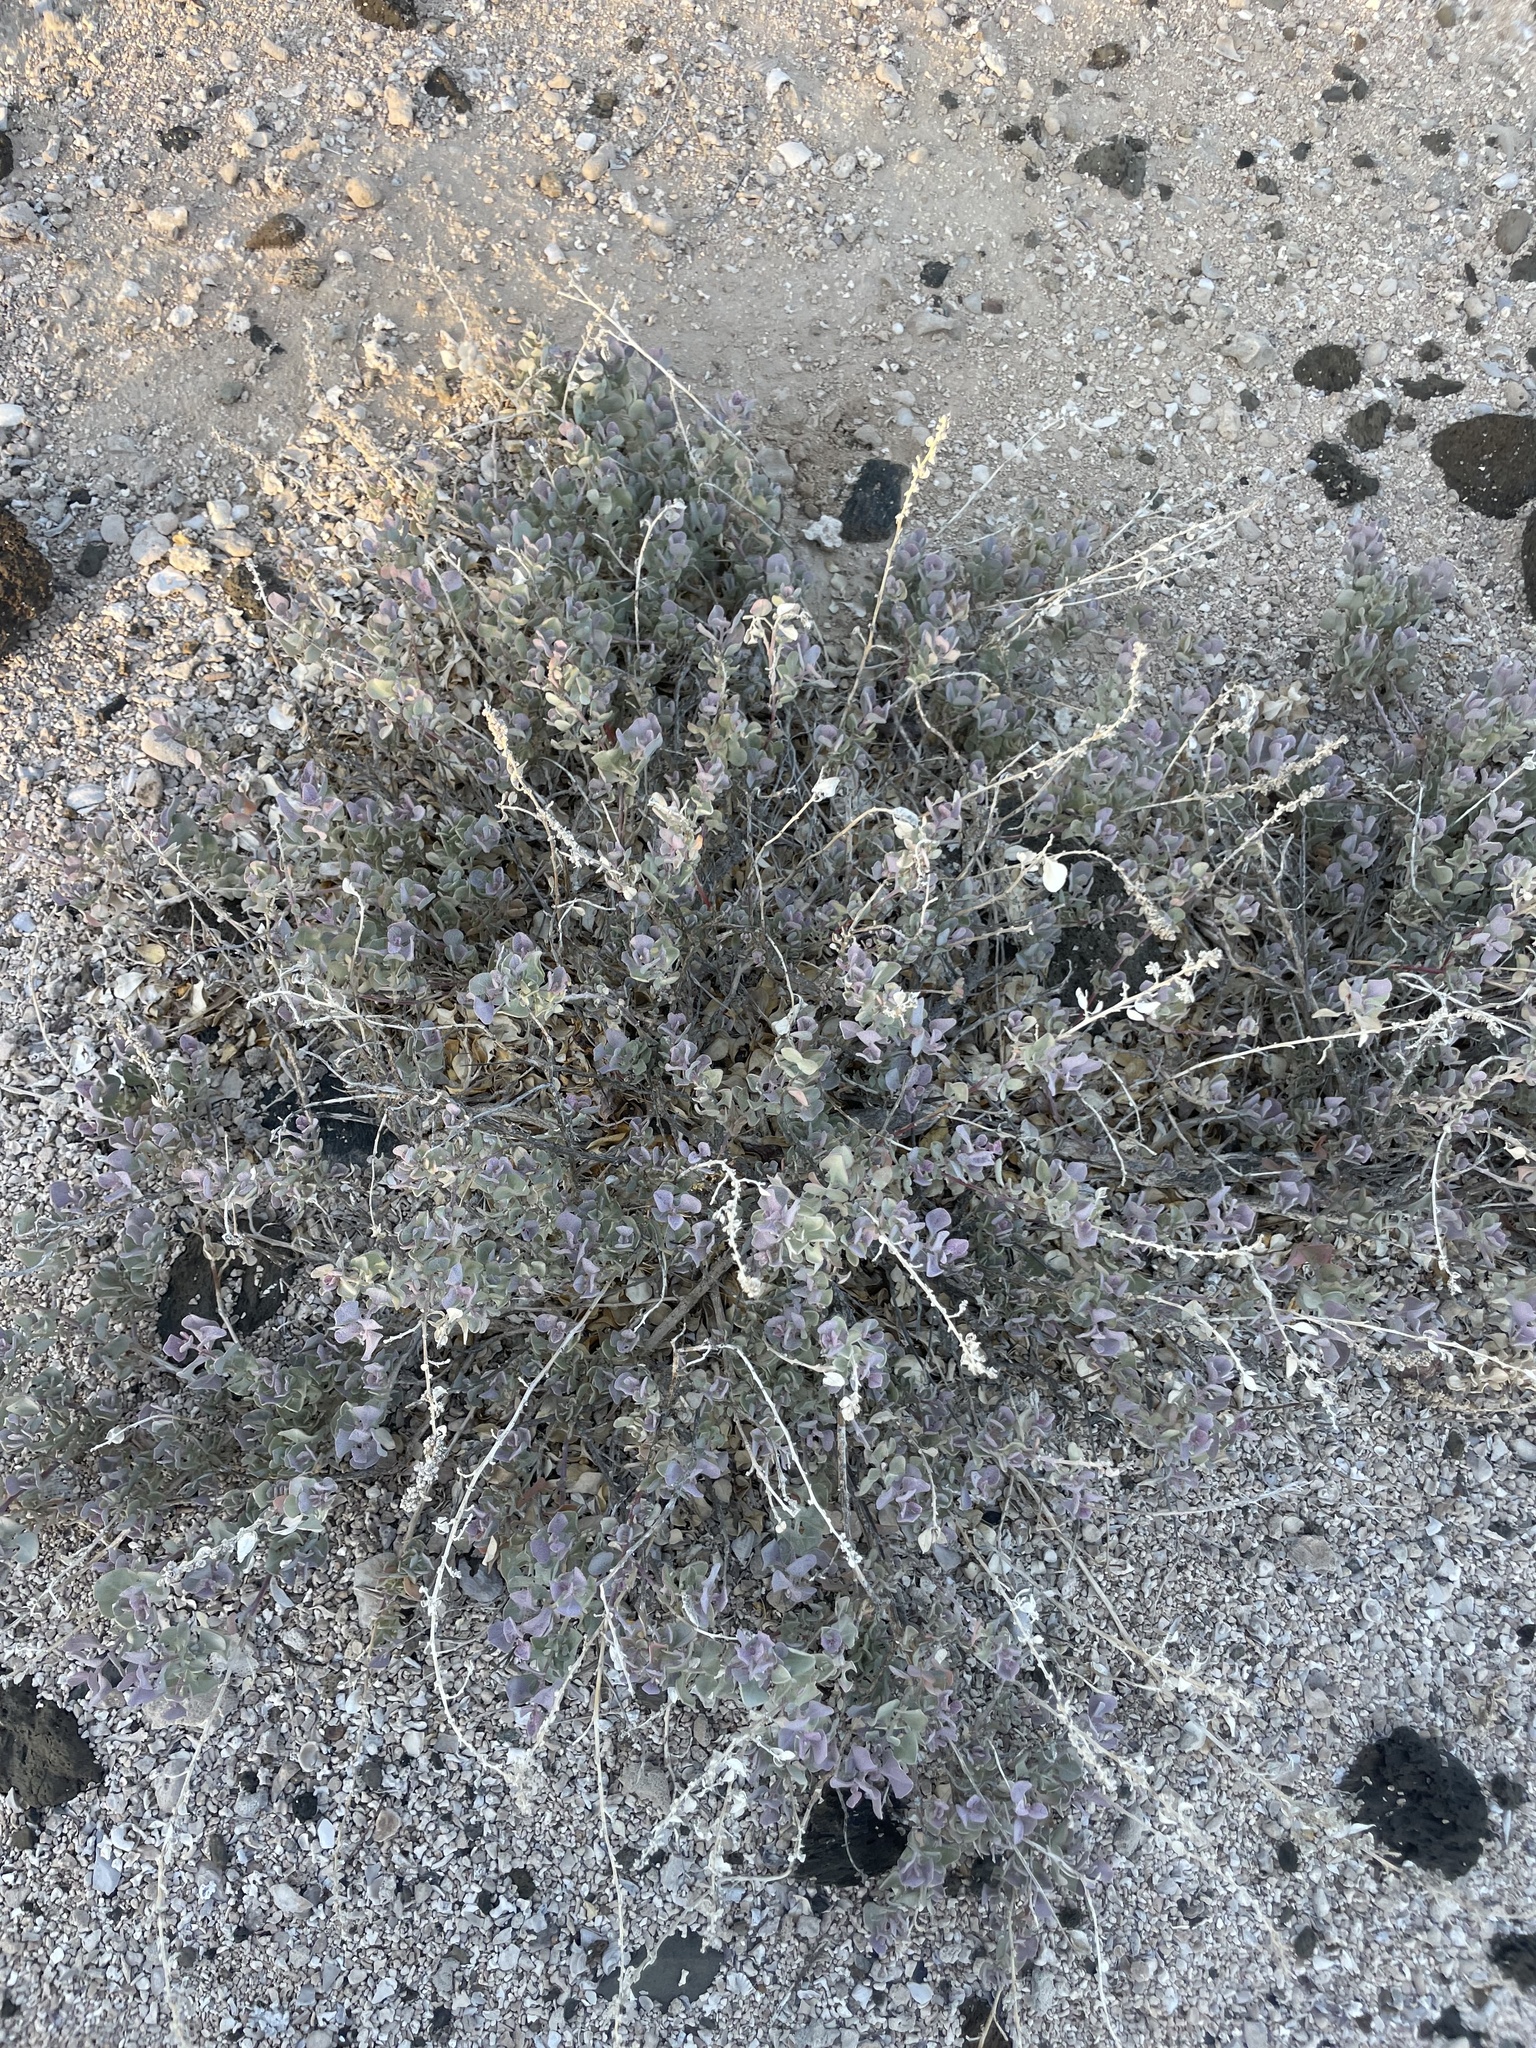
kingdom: Plantae
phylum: Tracheophyta
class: Magnoliopsida
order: Caryophyllales
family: Amaranthaceae
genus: Atriplex
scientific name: Atriplex barclayana
